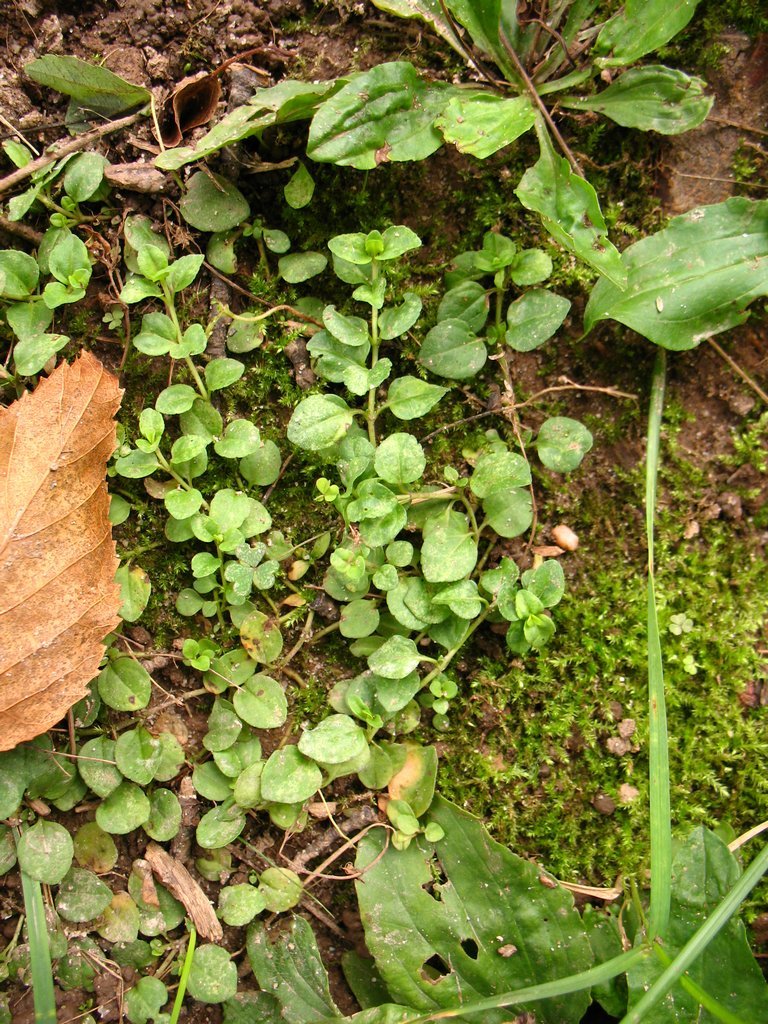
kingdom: Plantae
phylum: Tracheophyta
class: Magnoliopsida
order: Lamiales
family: Plantaginaceae
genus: Veronica
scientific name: Veronica serpyllifolia
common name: Thyme-leaved speedwell
